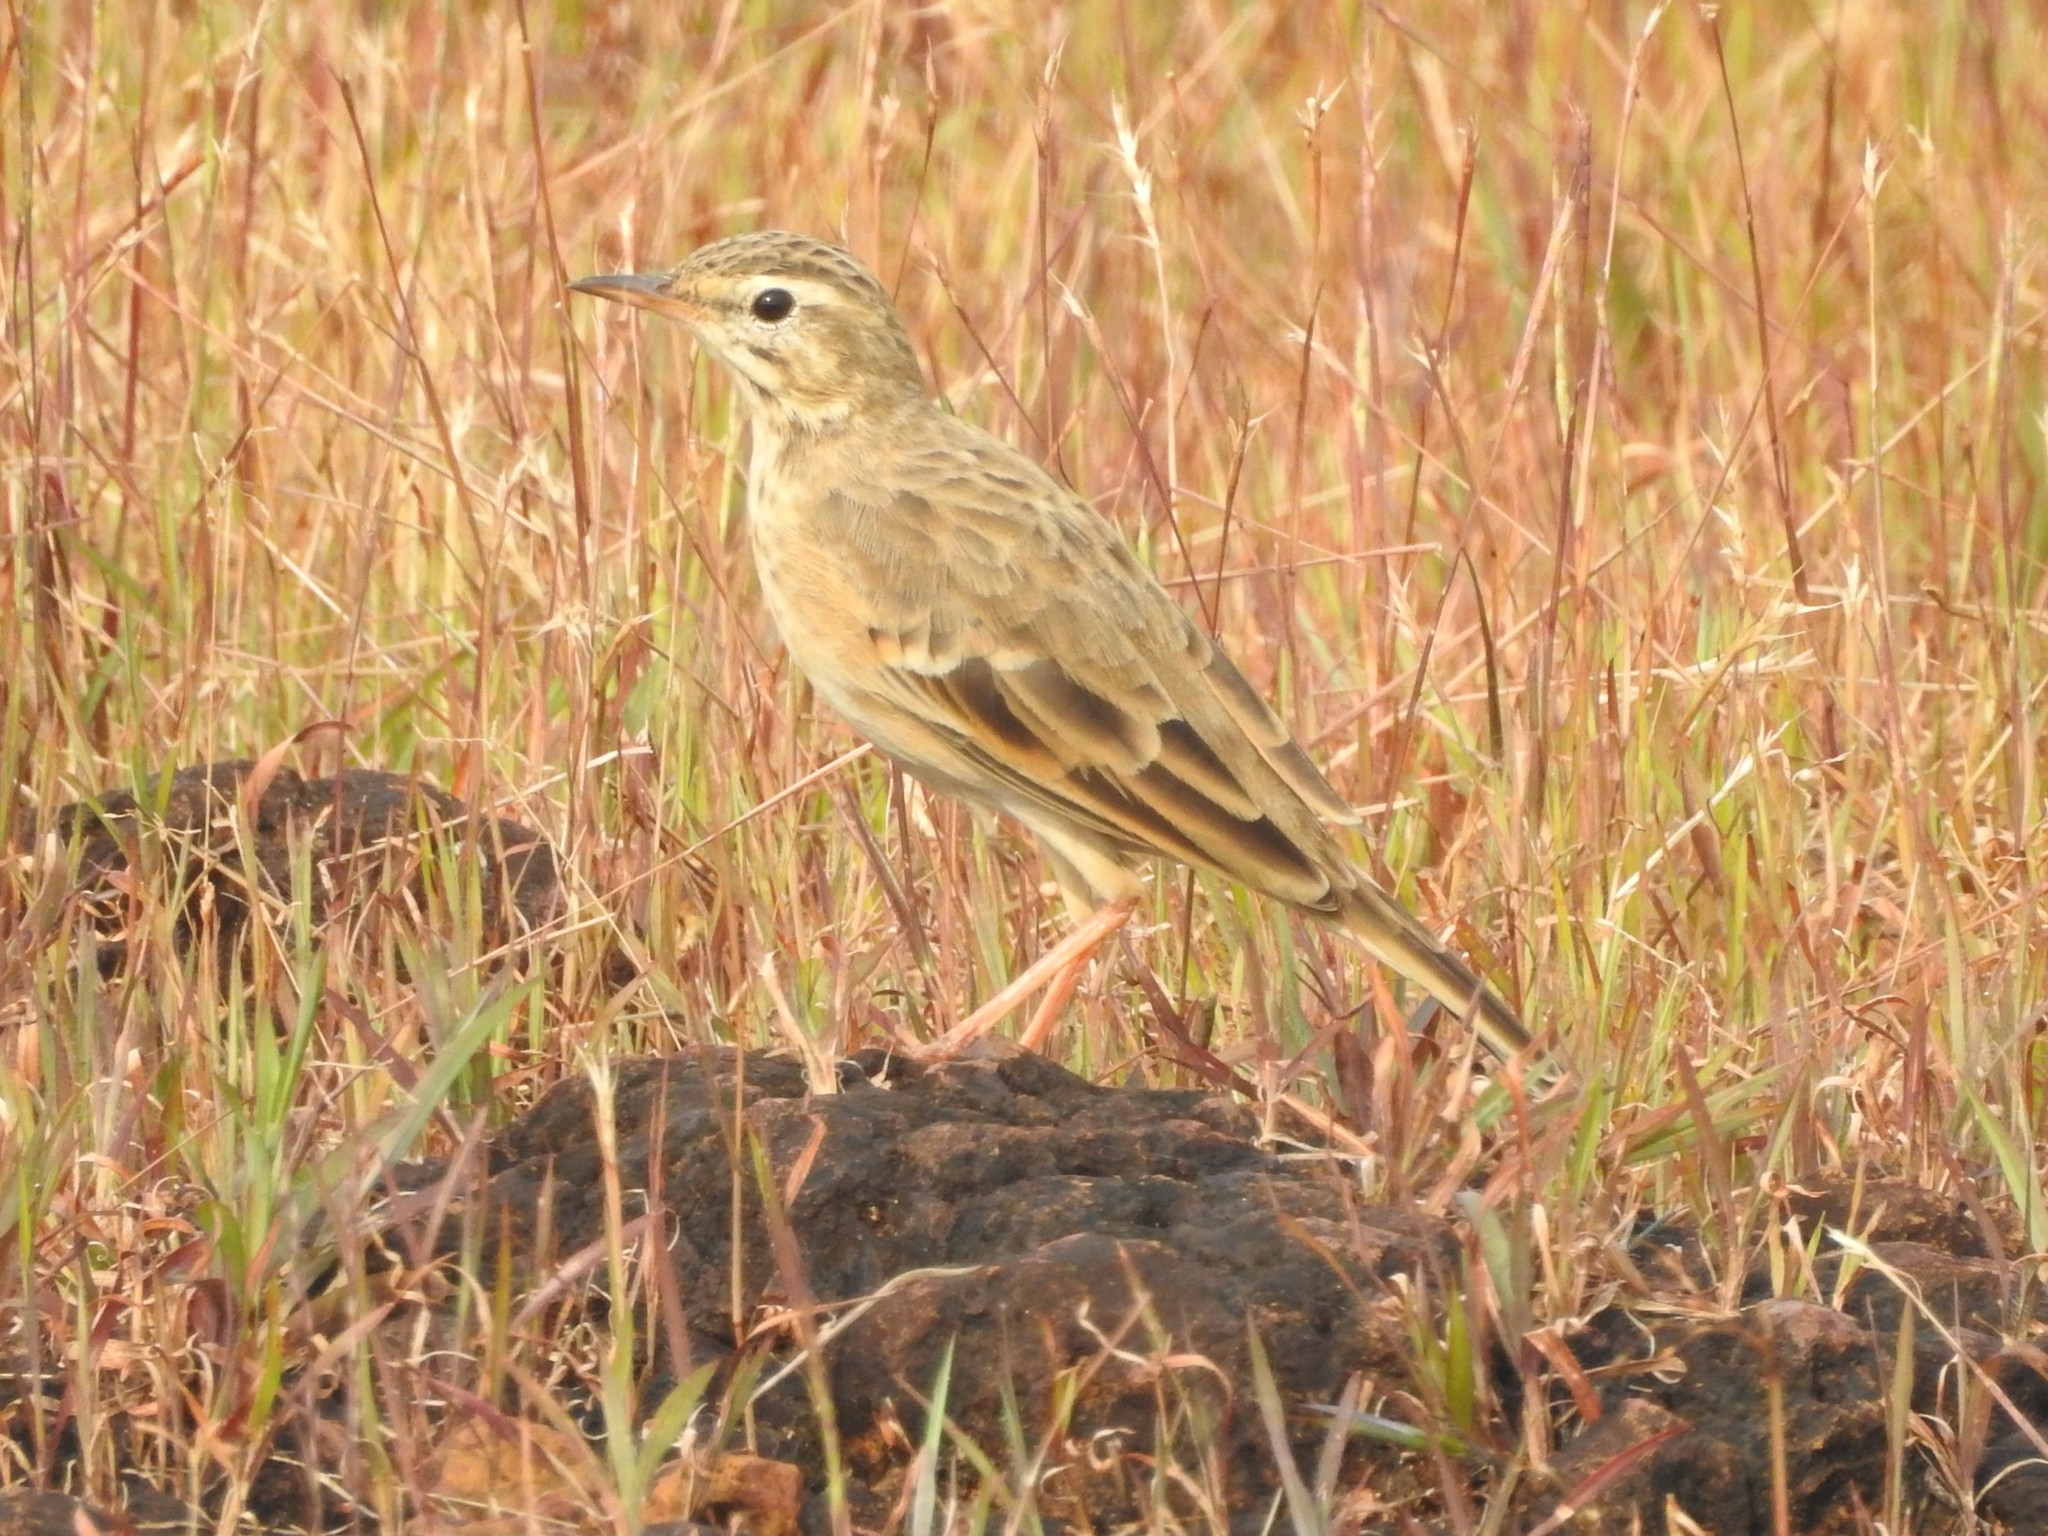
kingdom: Animalia
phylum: Chordata
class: Aves
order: Passeriformes
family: Motacillidae
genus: Anthus
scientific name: Anthus rufulus
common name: Paddyfield pipit
